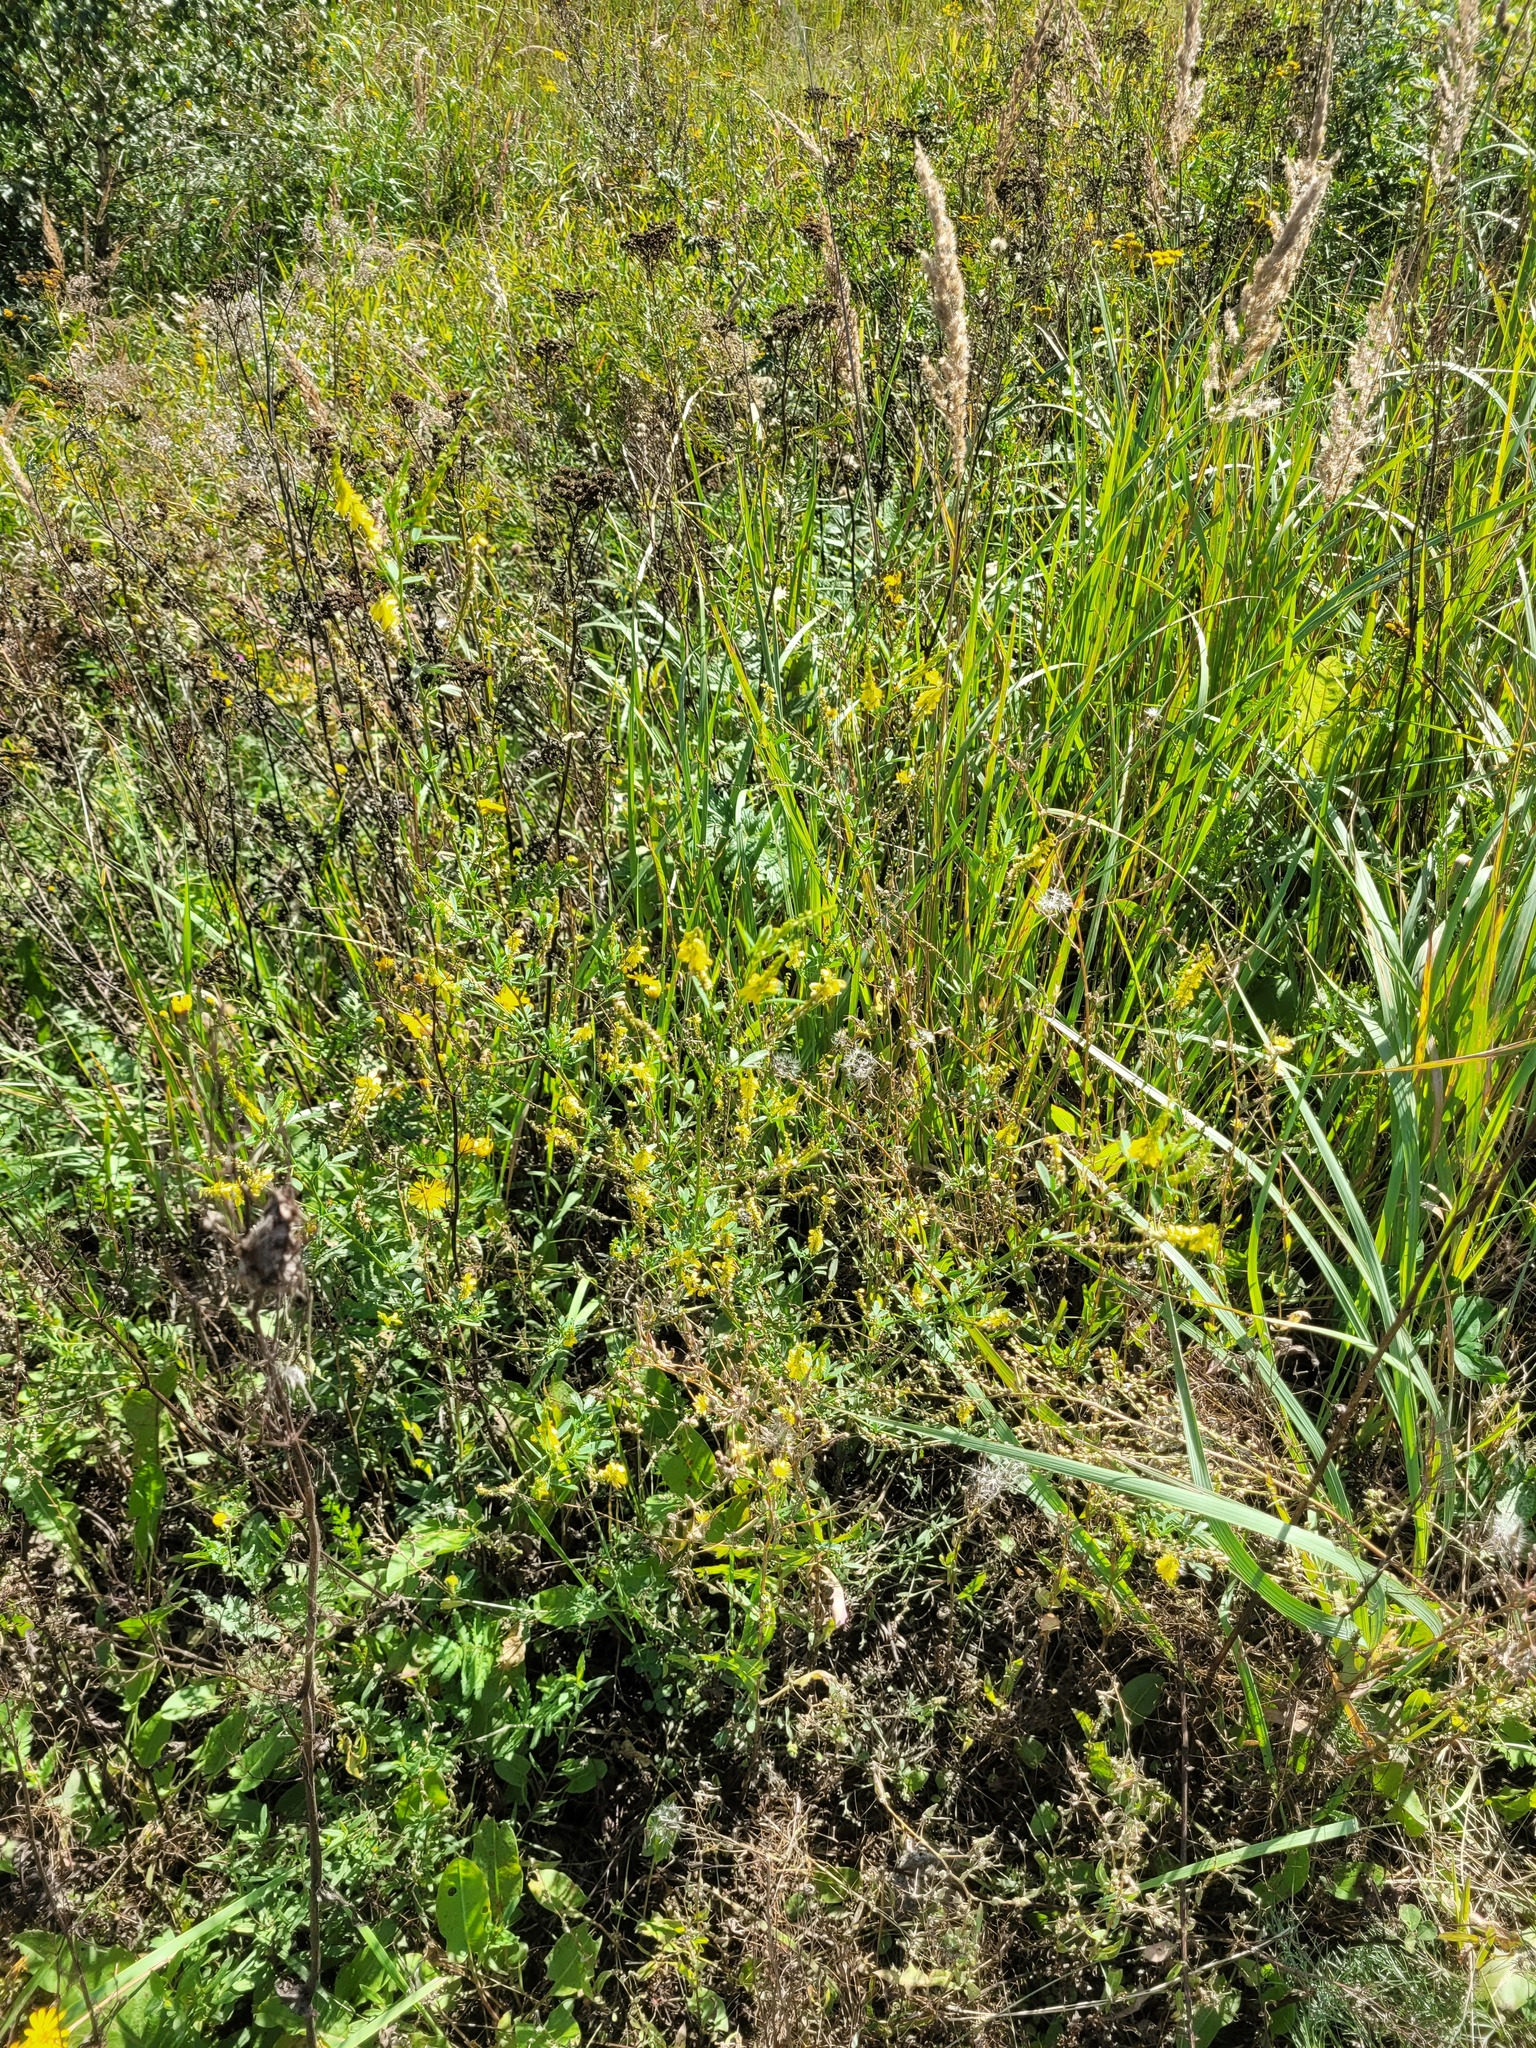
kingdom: Plantae
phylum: Tracheophyta
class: Magnoliopsida
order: Fabales
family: Fabaceae
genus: Melilotus
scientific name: Melilotus officinalis
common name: Sweetclover
